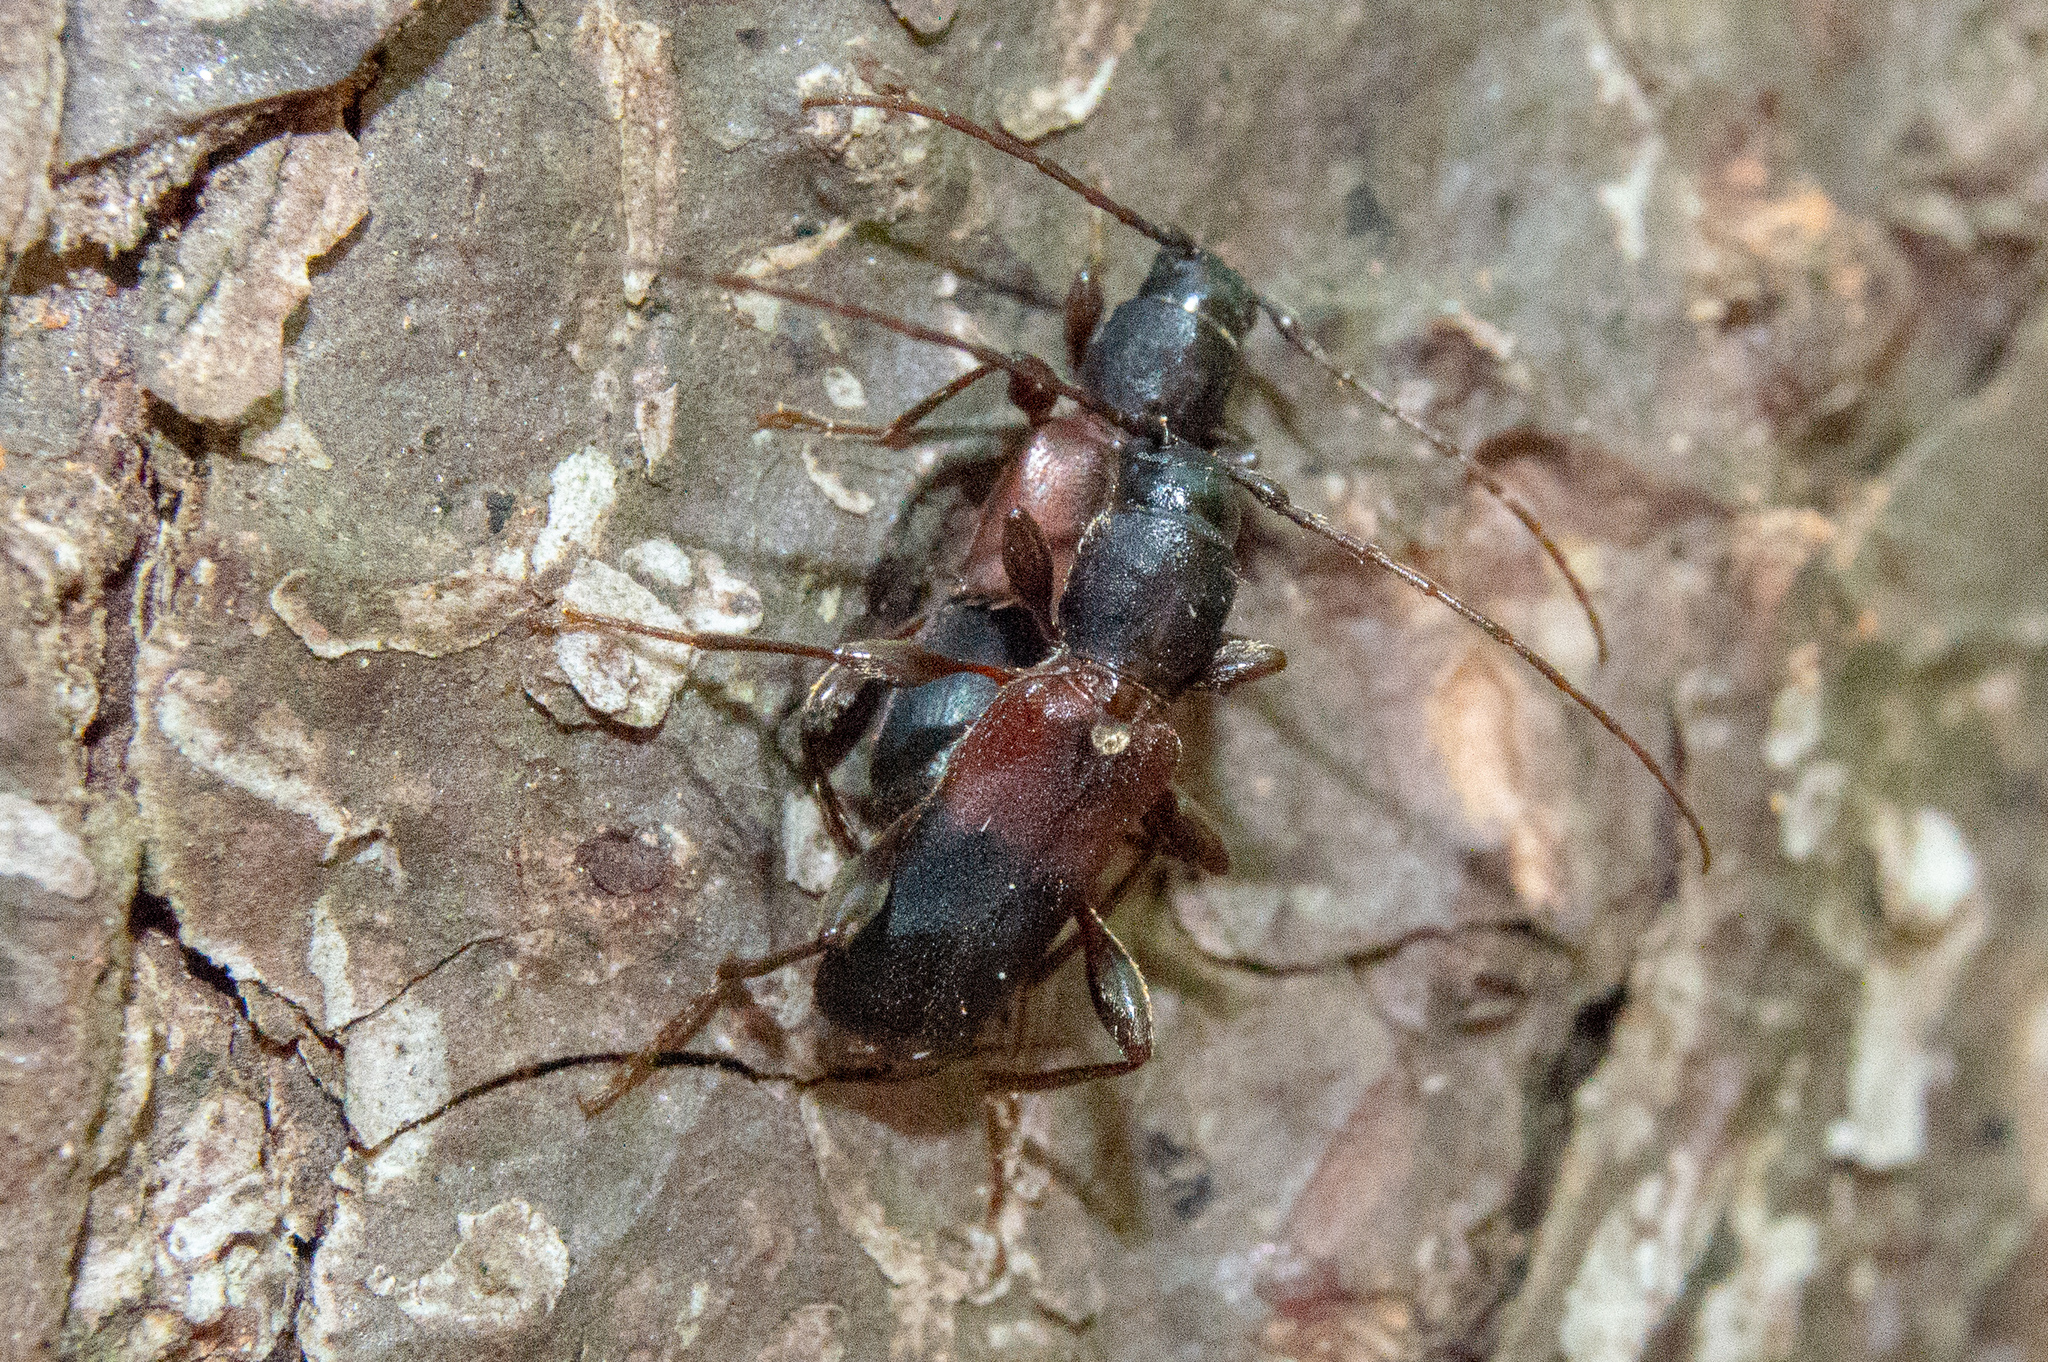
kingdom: Animalia
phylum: Arthropoda
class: Insecta
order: Coleoptera
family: Cerambycidae
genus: Phymatodes
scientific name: Phymatodes dimidiatus
